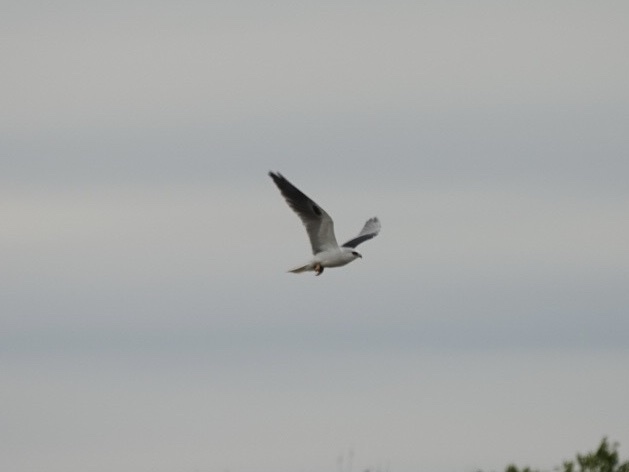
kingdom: Animalia
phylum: Chordata
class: Aves
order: Accipitriformes
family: Accipitridae
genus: Elanus
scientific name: Elanus leucurus
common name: White-tailed kite
